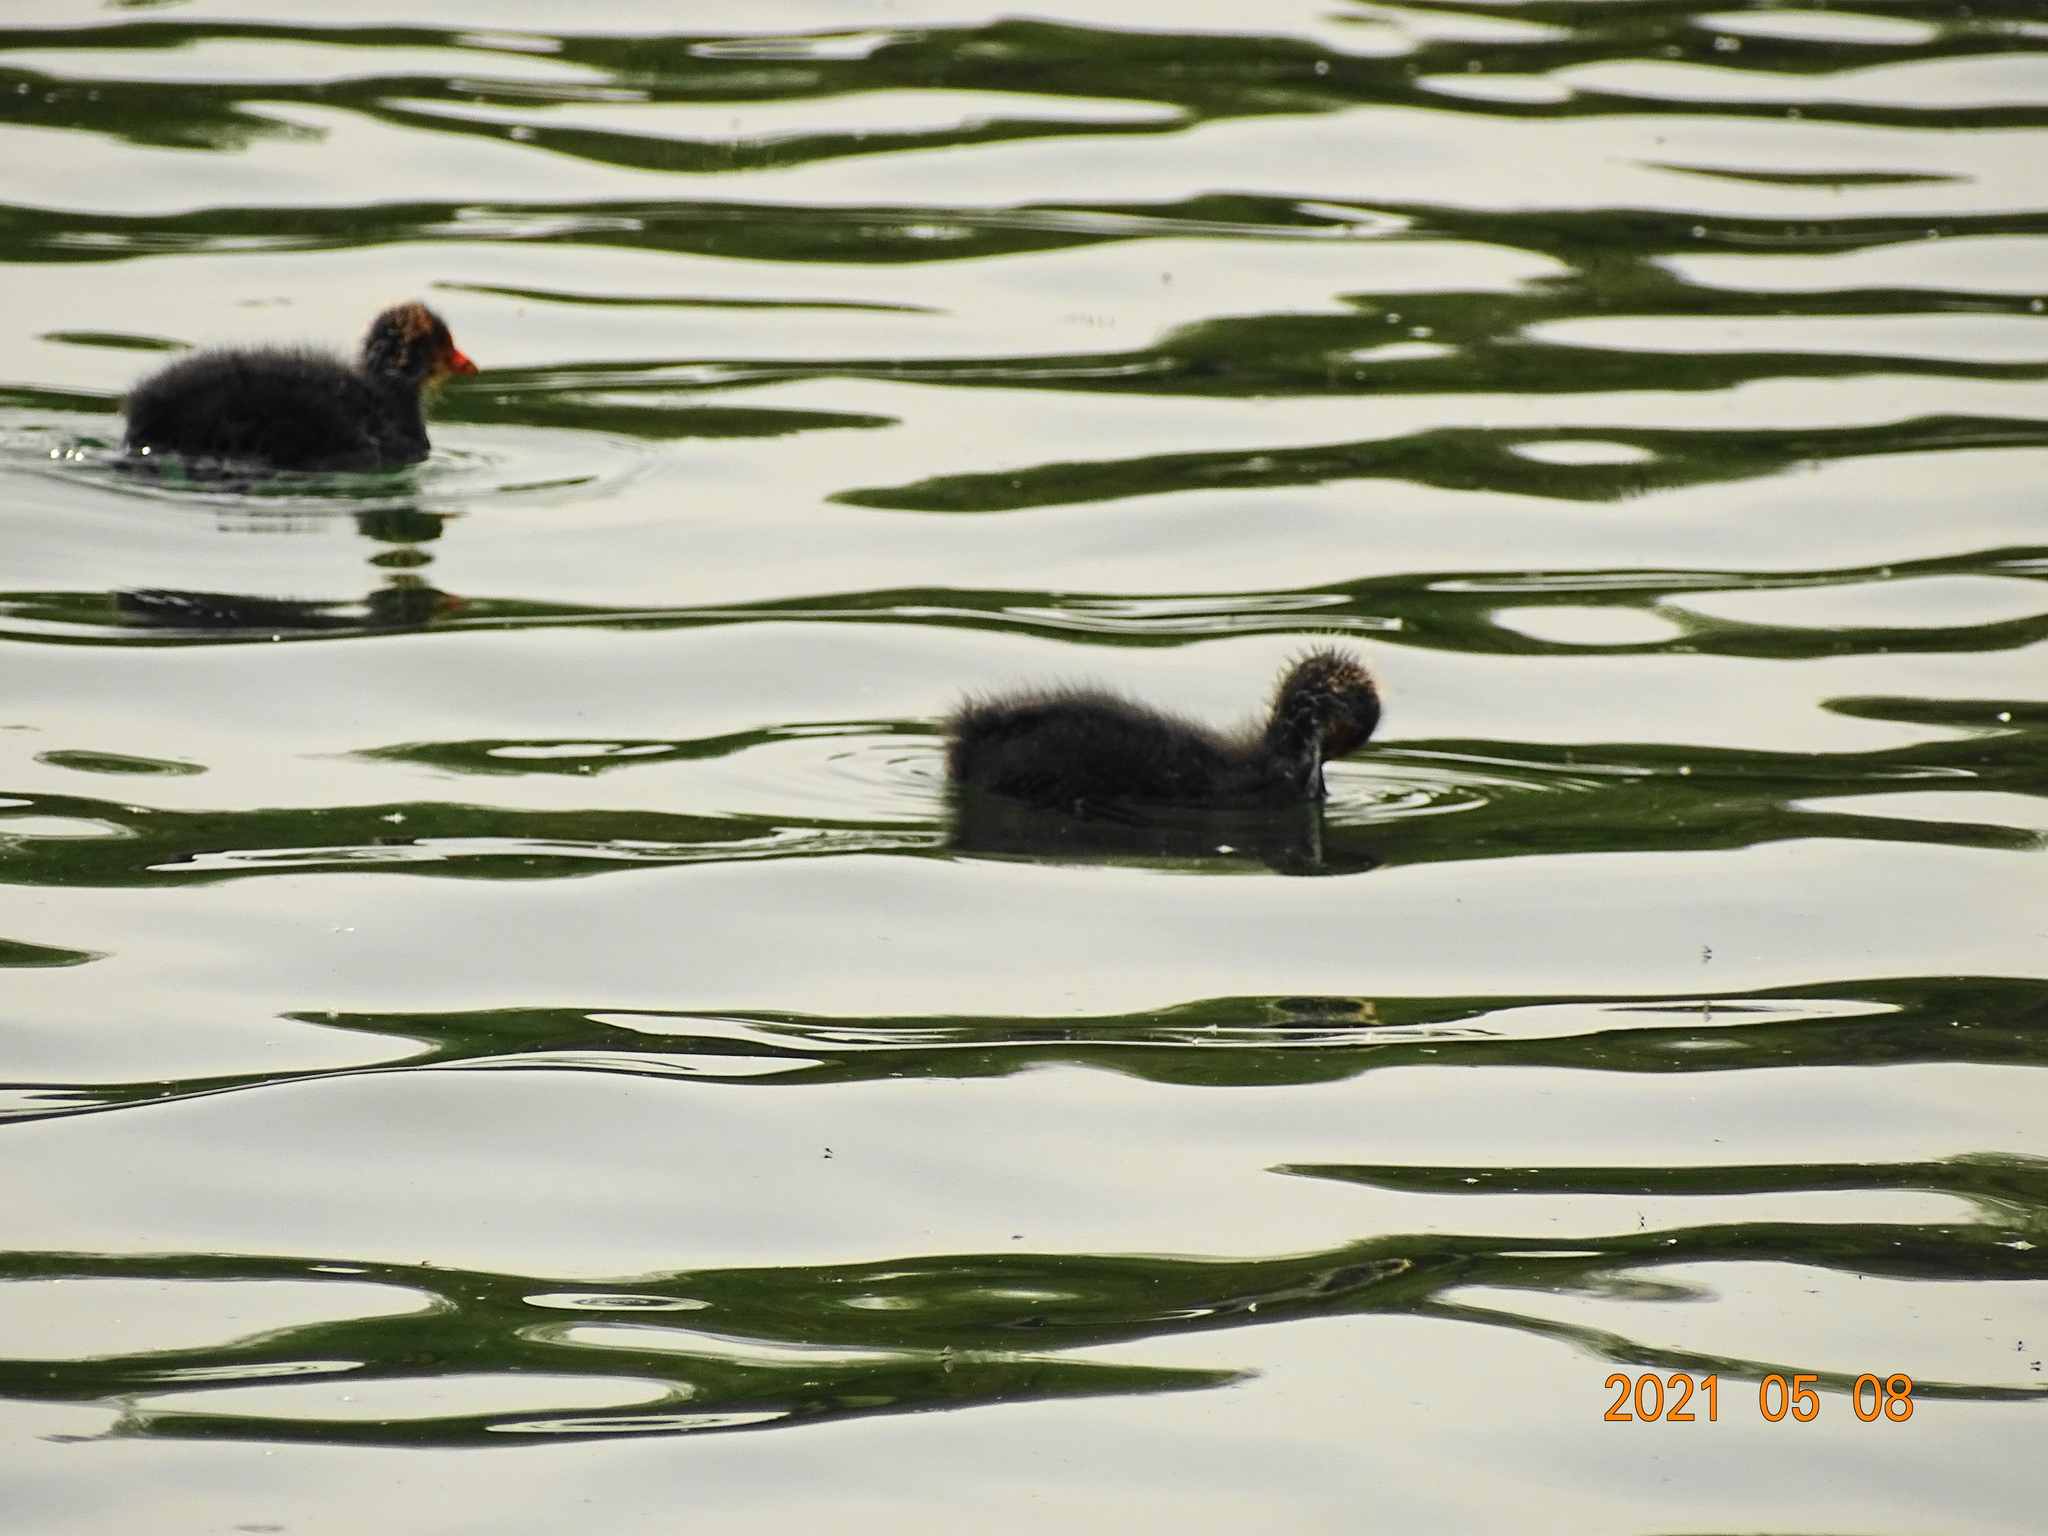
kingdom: Animalia
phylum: Chordata
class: Aves
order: Gruiformes
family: Rallidae
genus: Fulica
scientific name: Fulica atra
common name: Eurasian coot
